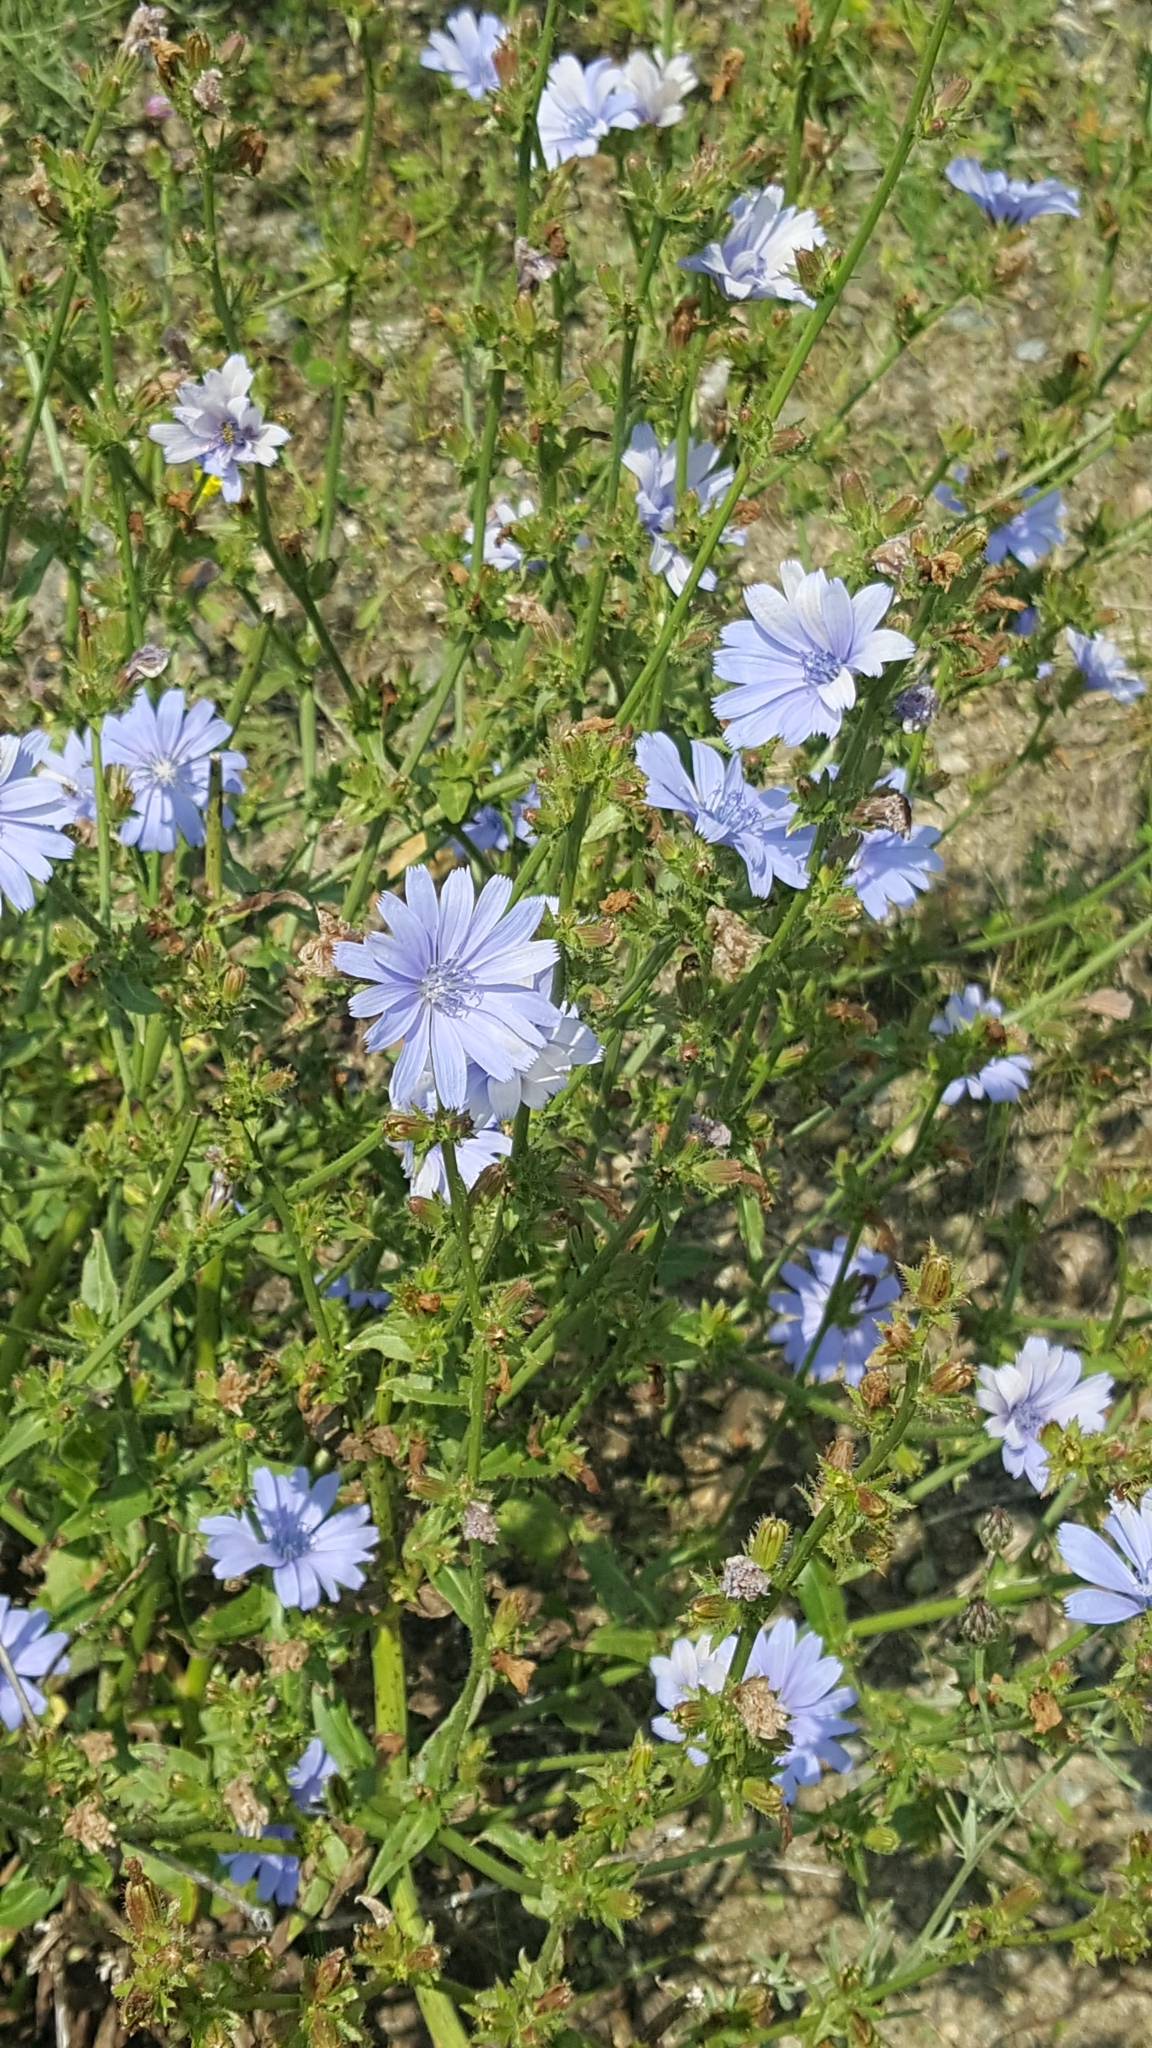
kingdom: Plantae
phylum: Tracheophyta
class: Magnoliopsida
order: Asterales
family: Asteraceae
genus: Cichorium
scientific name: Cichorium intybus
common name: Chicory
